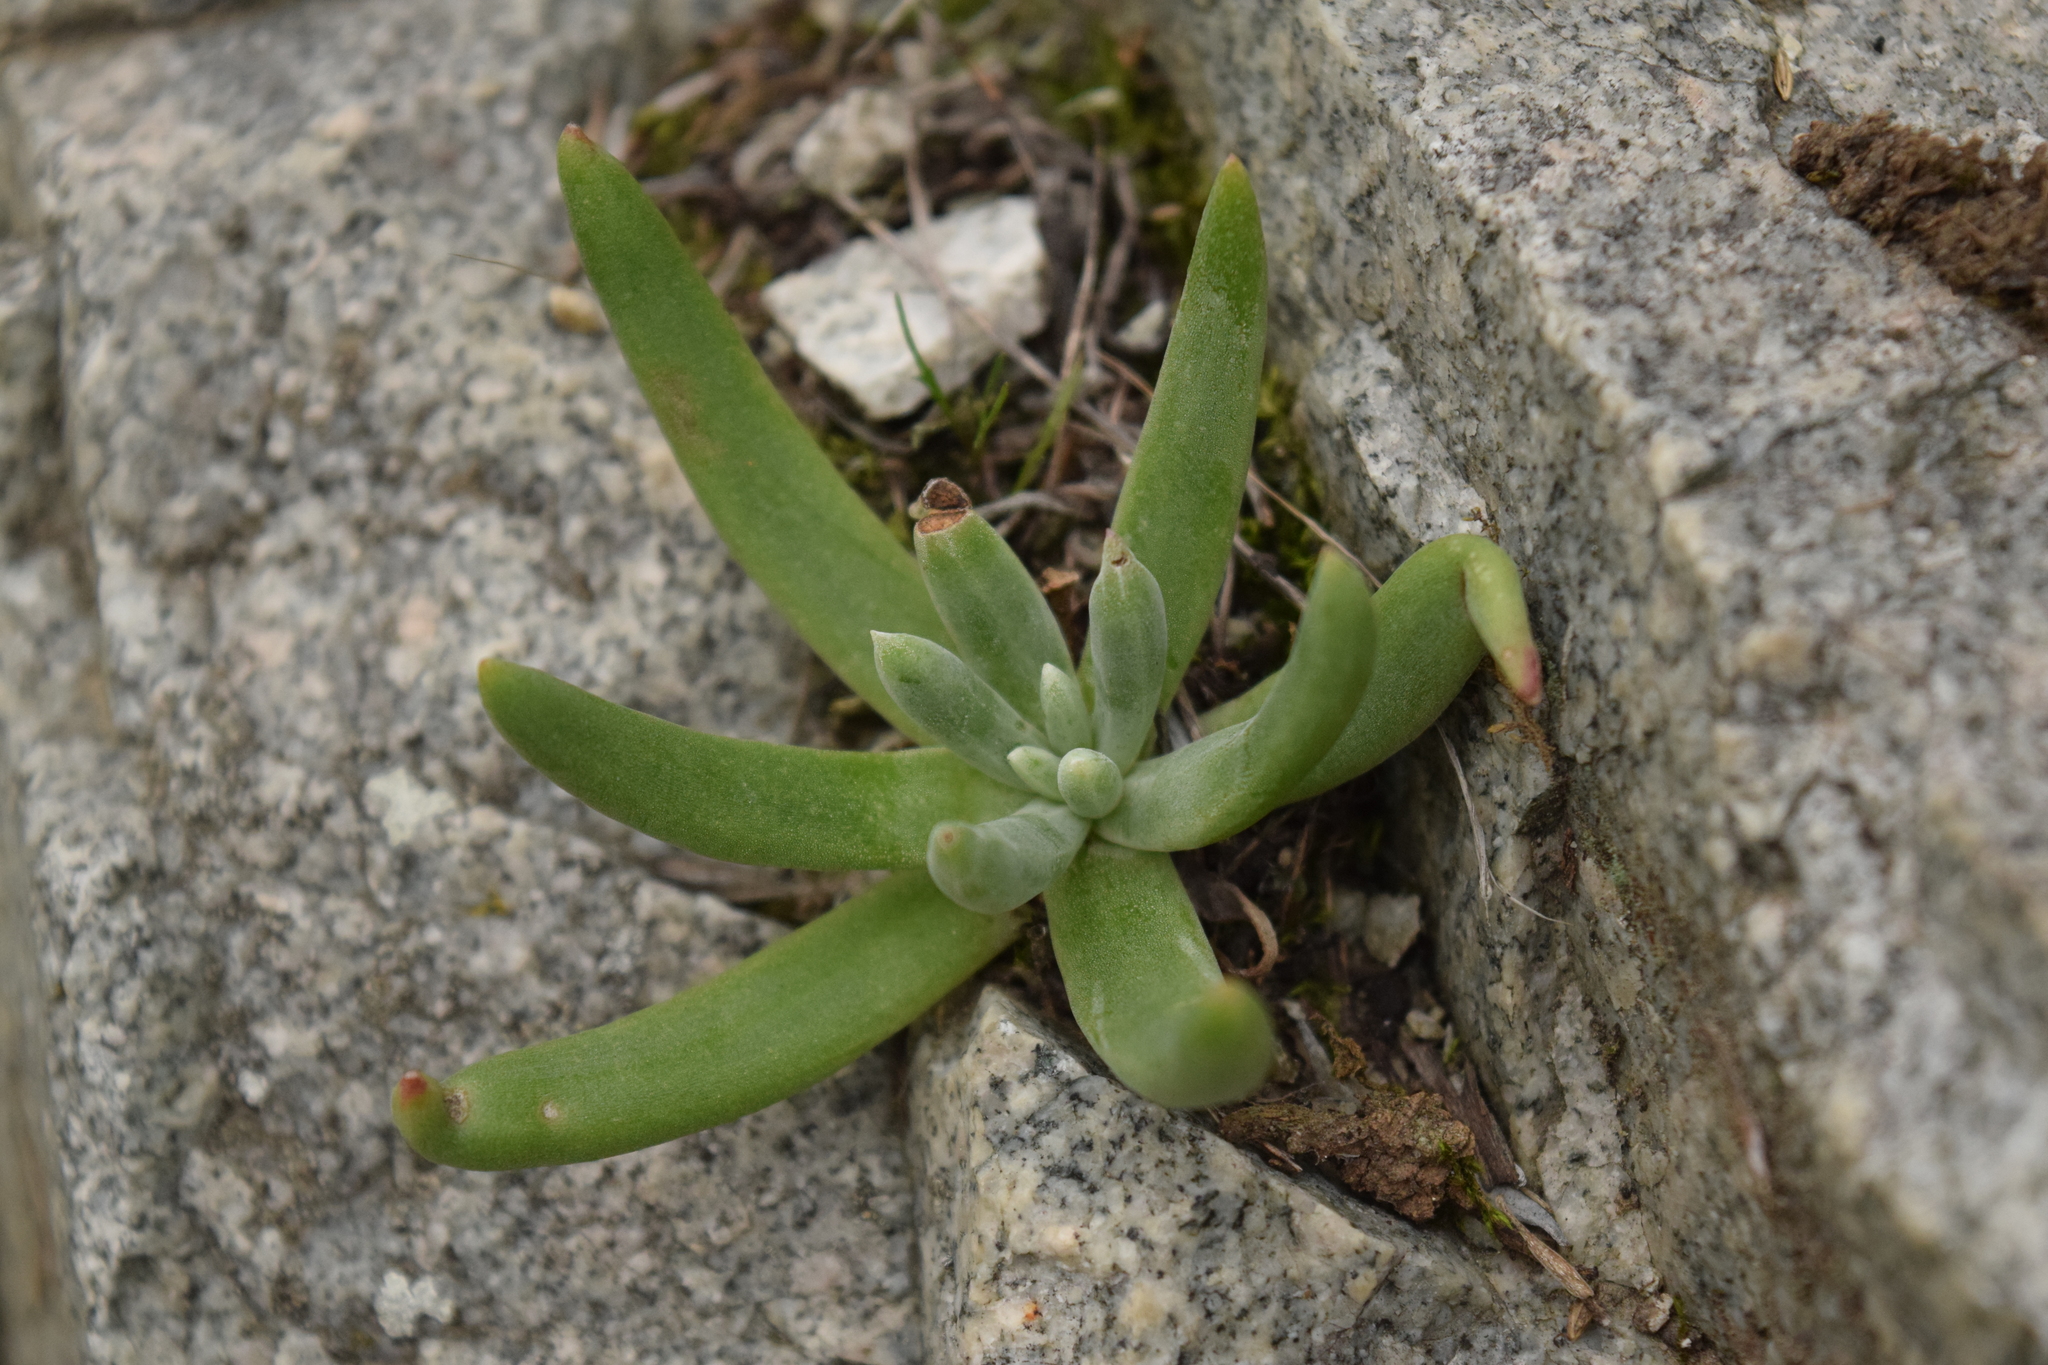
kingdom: Plantae
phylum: Tracheophyta
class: Magnoliopsida
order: Saxifragales
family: Crassulaceae
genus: Dudleya
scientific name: Dudleya densiflora
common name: San gabriel mountains dudleya
